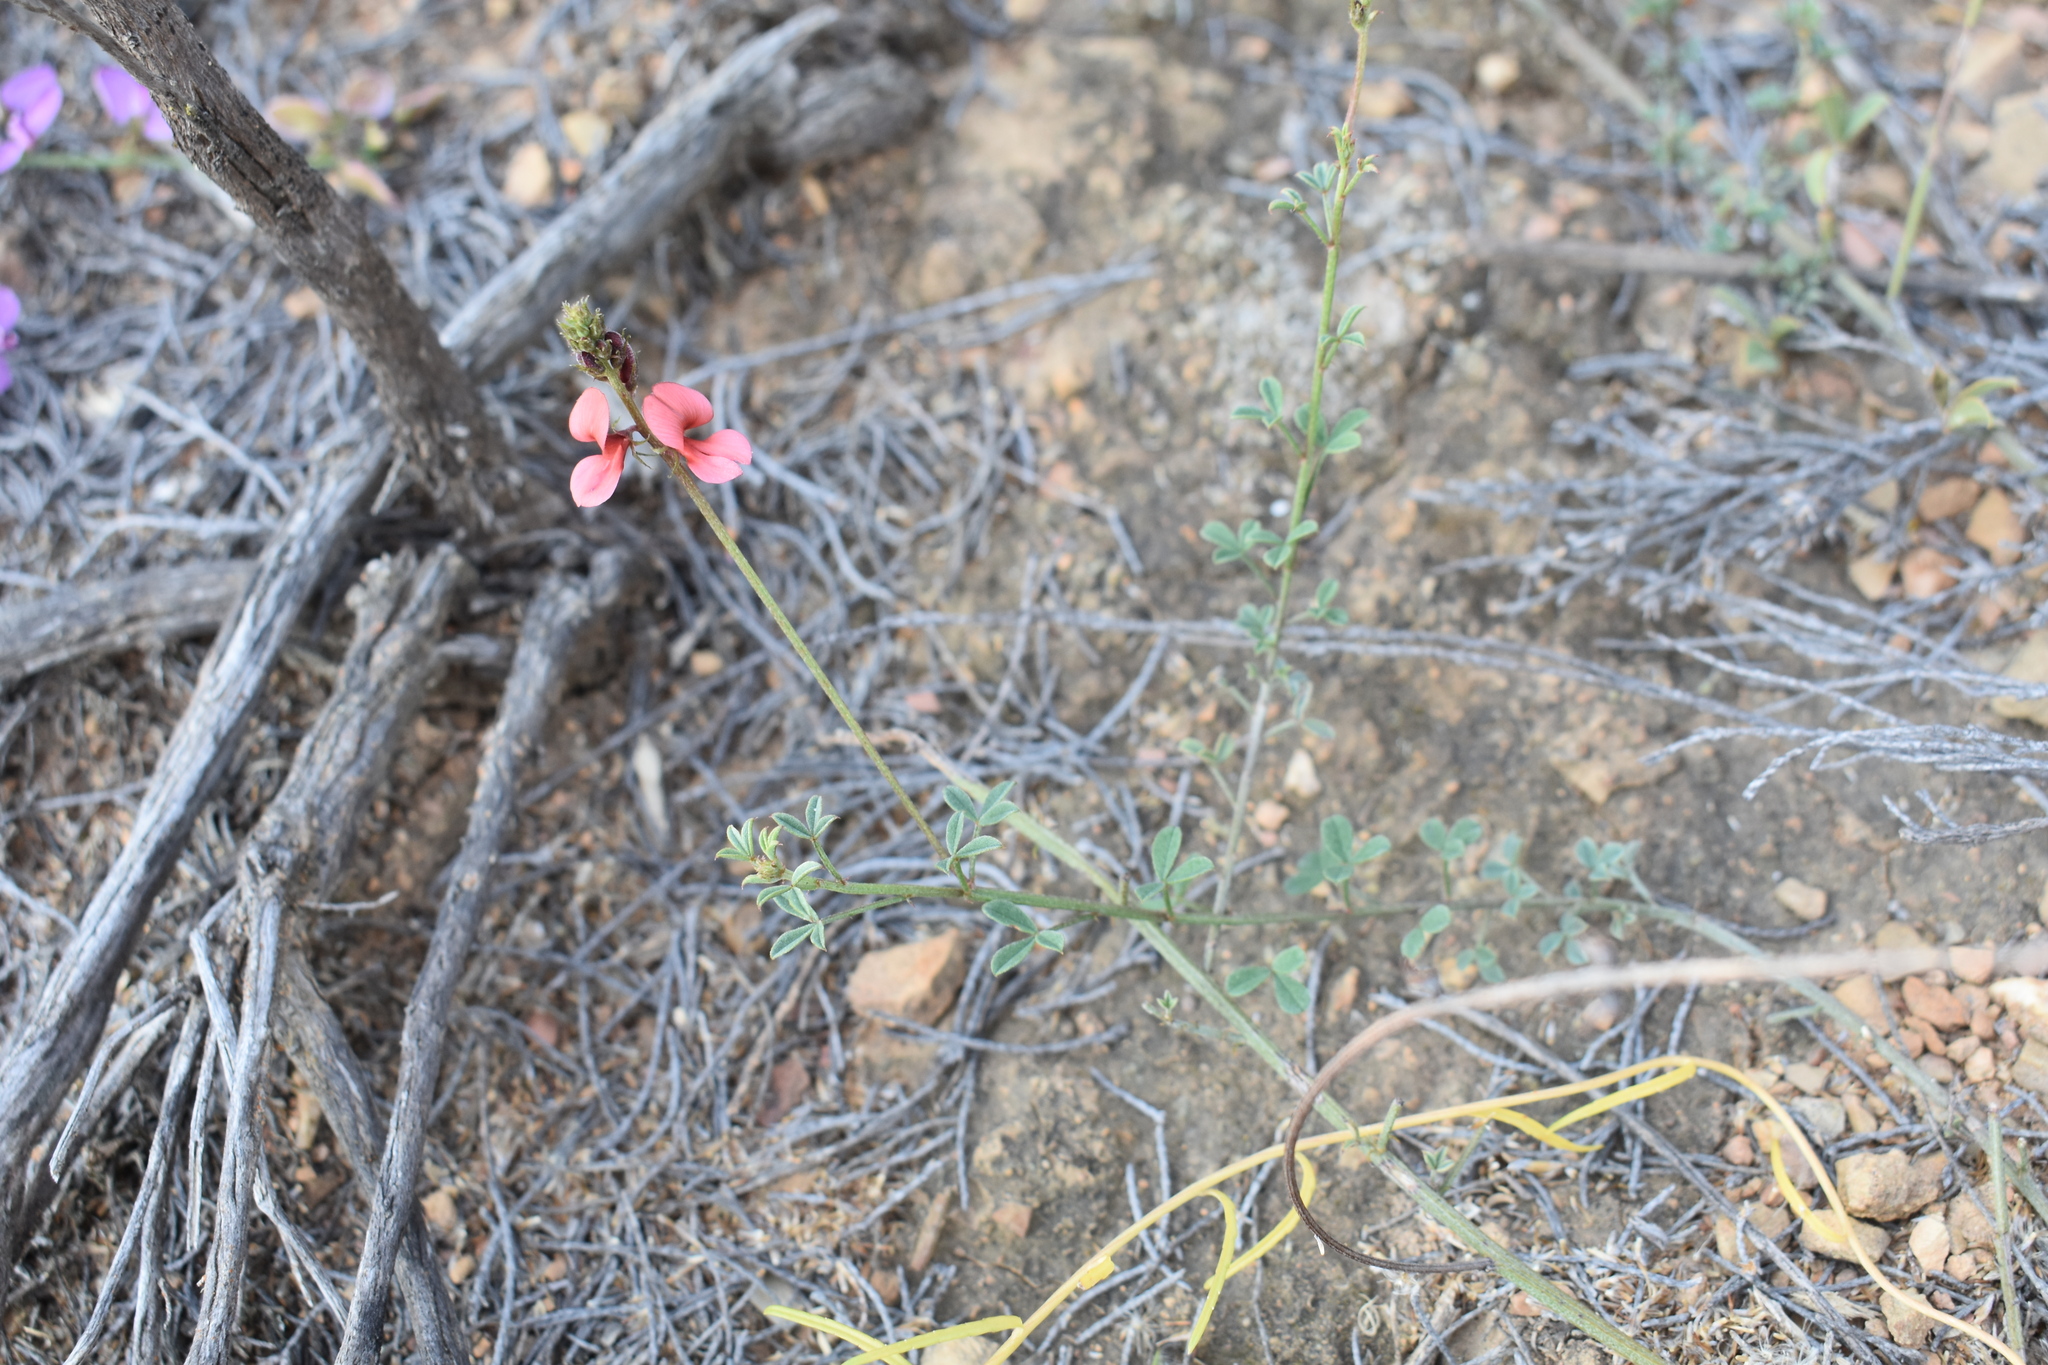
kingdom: Plantae
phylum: Tracheophyta
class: Magnoliopsida
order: Fabales
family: Fabaceae
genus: Indigofera
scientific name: Indigofera heterophylla
